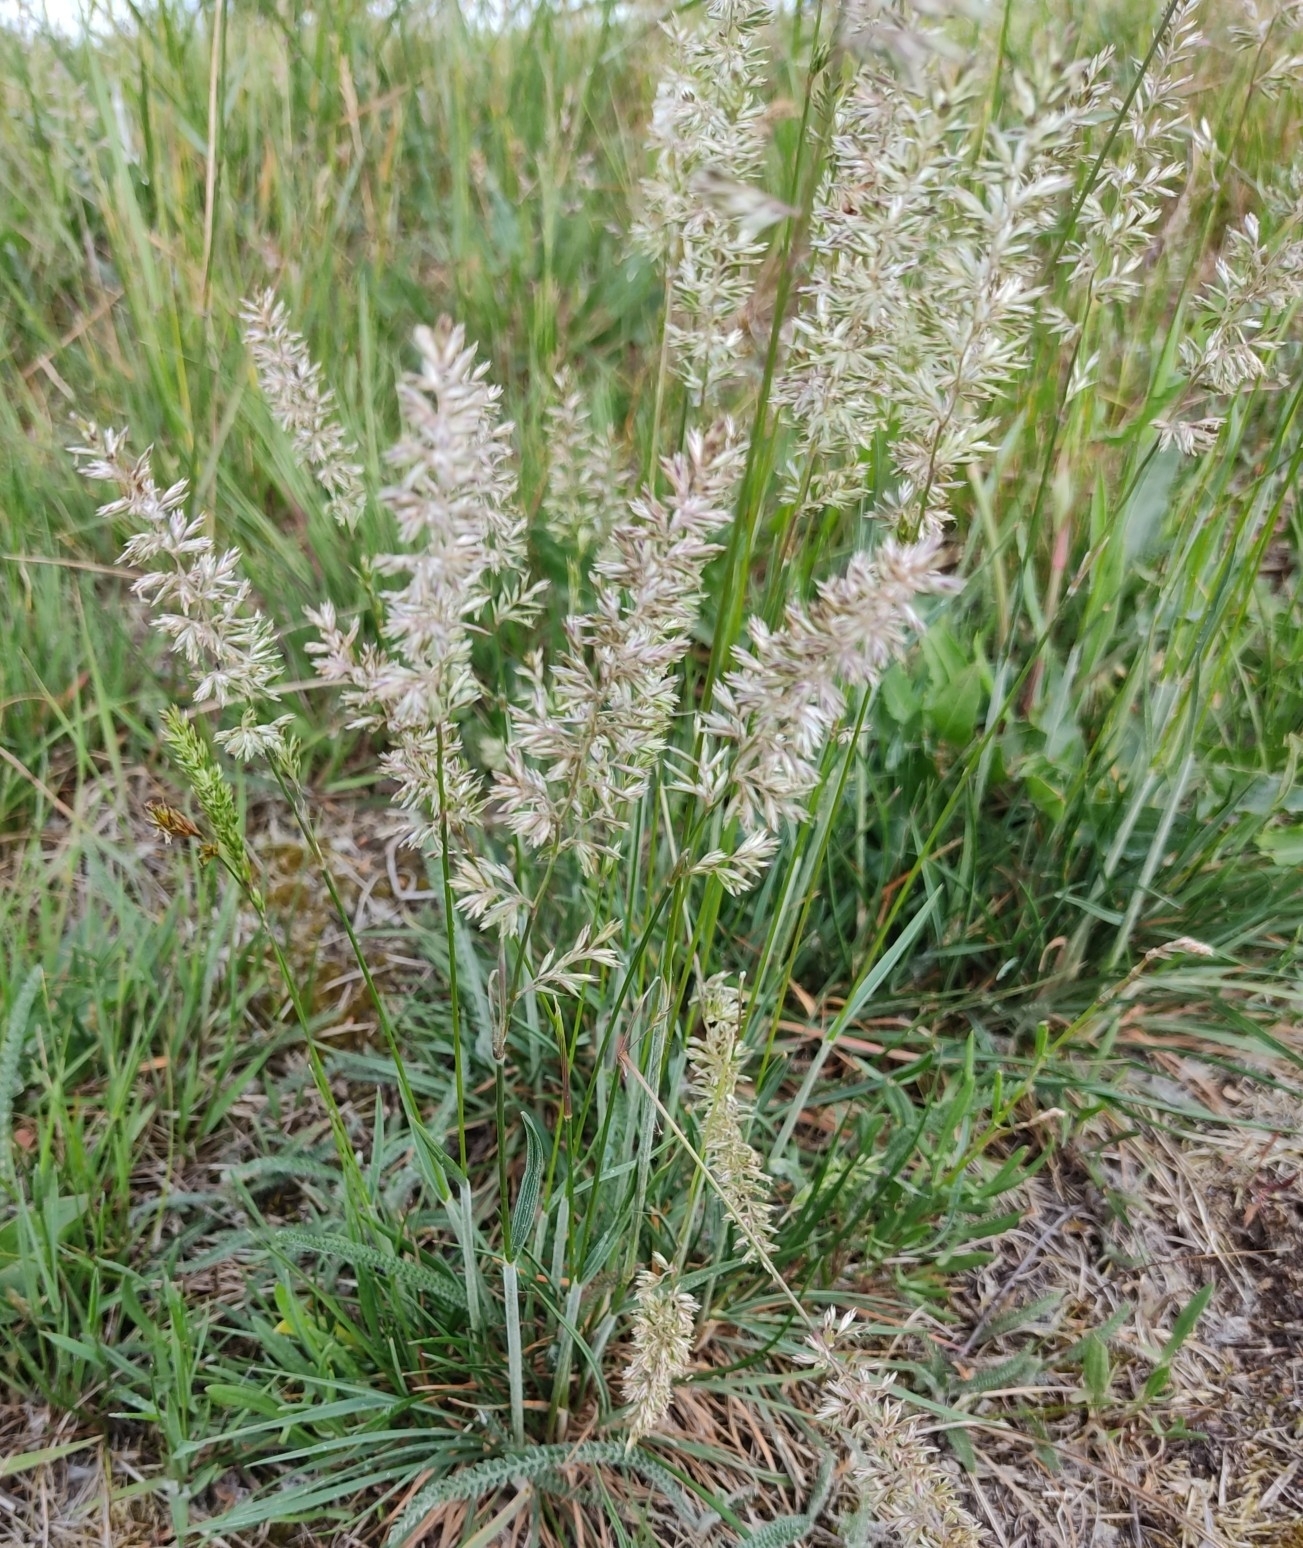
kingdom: Plantae
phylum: Tracheophyta
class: Liliopsida
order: Poales
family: Poaceae
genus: Koeleria
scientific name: Koeleria macrantha
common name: Crested hair-grass
